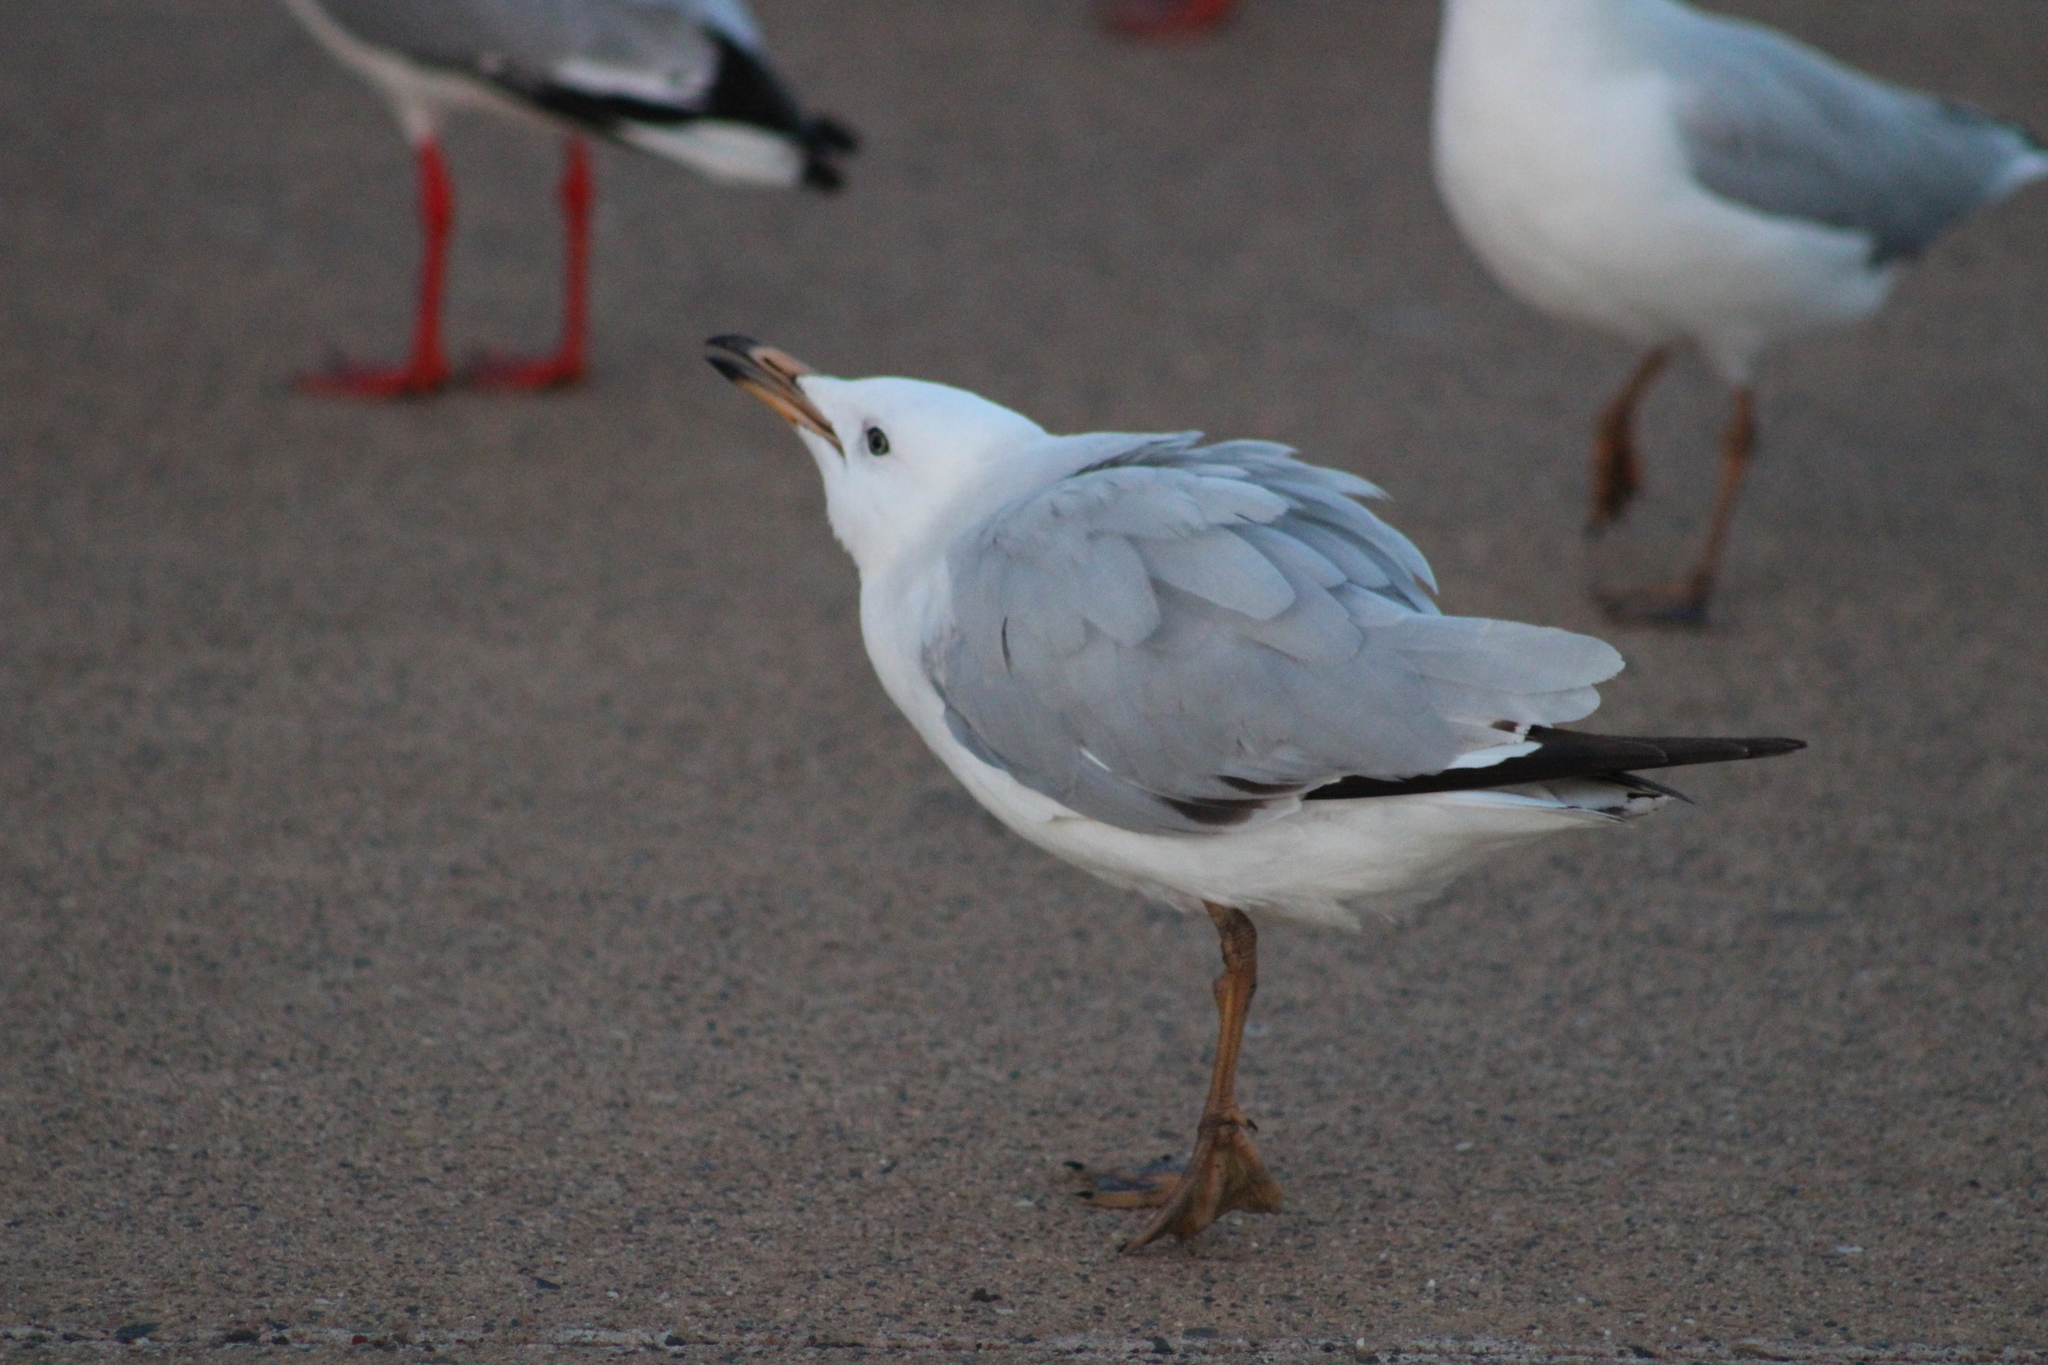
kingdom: Animalia
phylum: Chordata
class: Aves
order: Charadriiformes
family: Laridae
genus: Chroicocephalus
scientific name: Chroicocephalus novaehollandiae
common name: Silver gull
